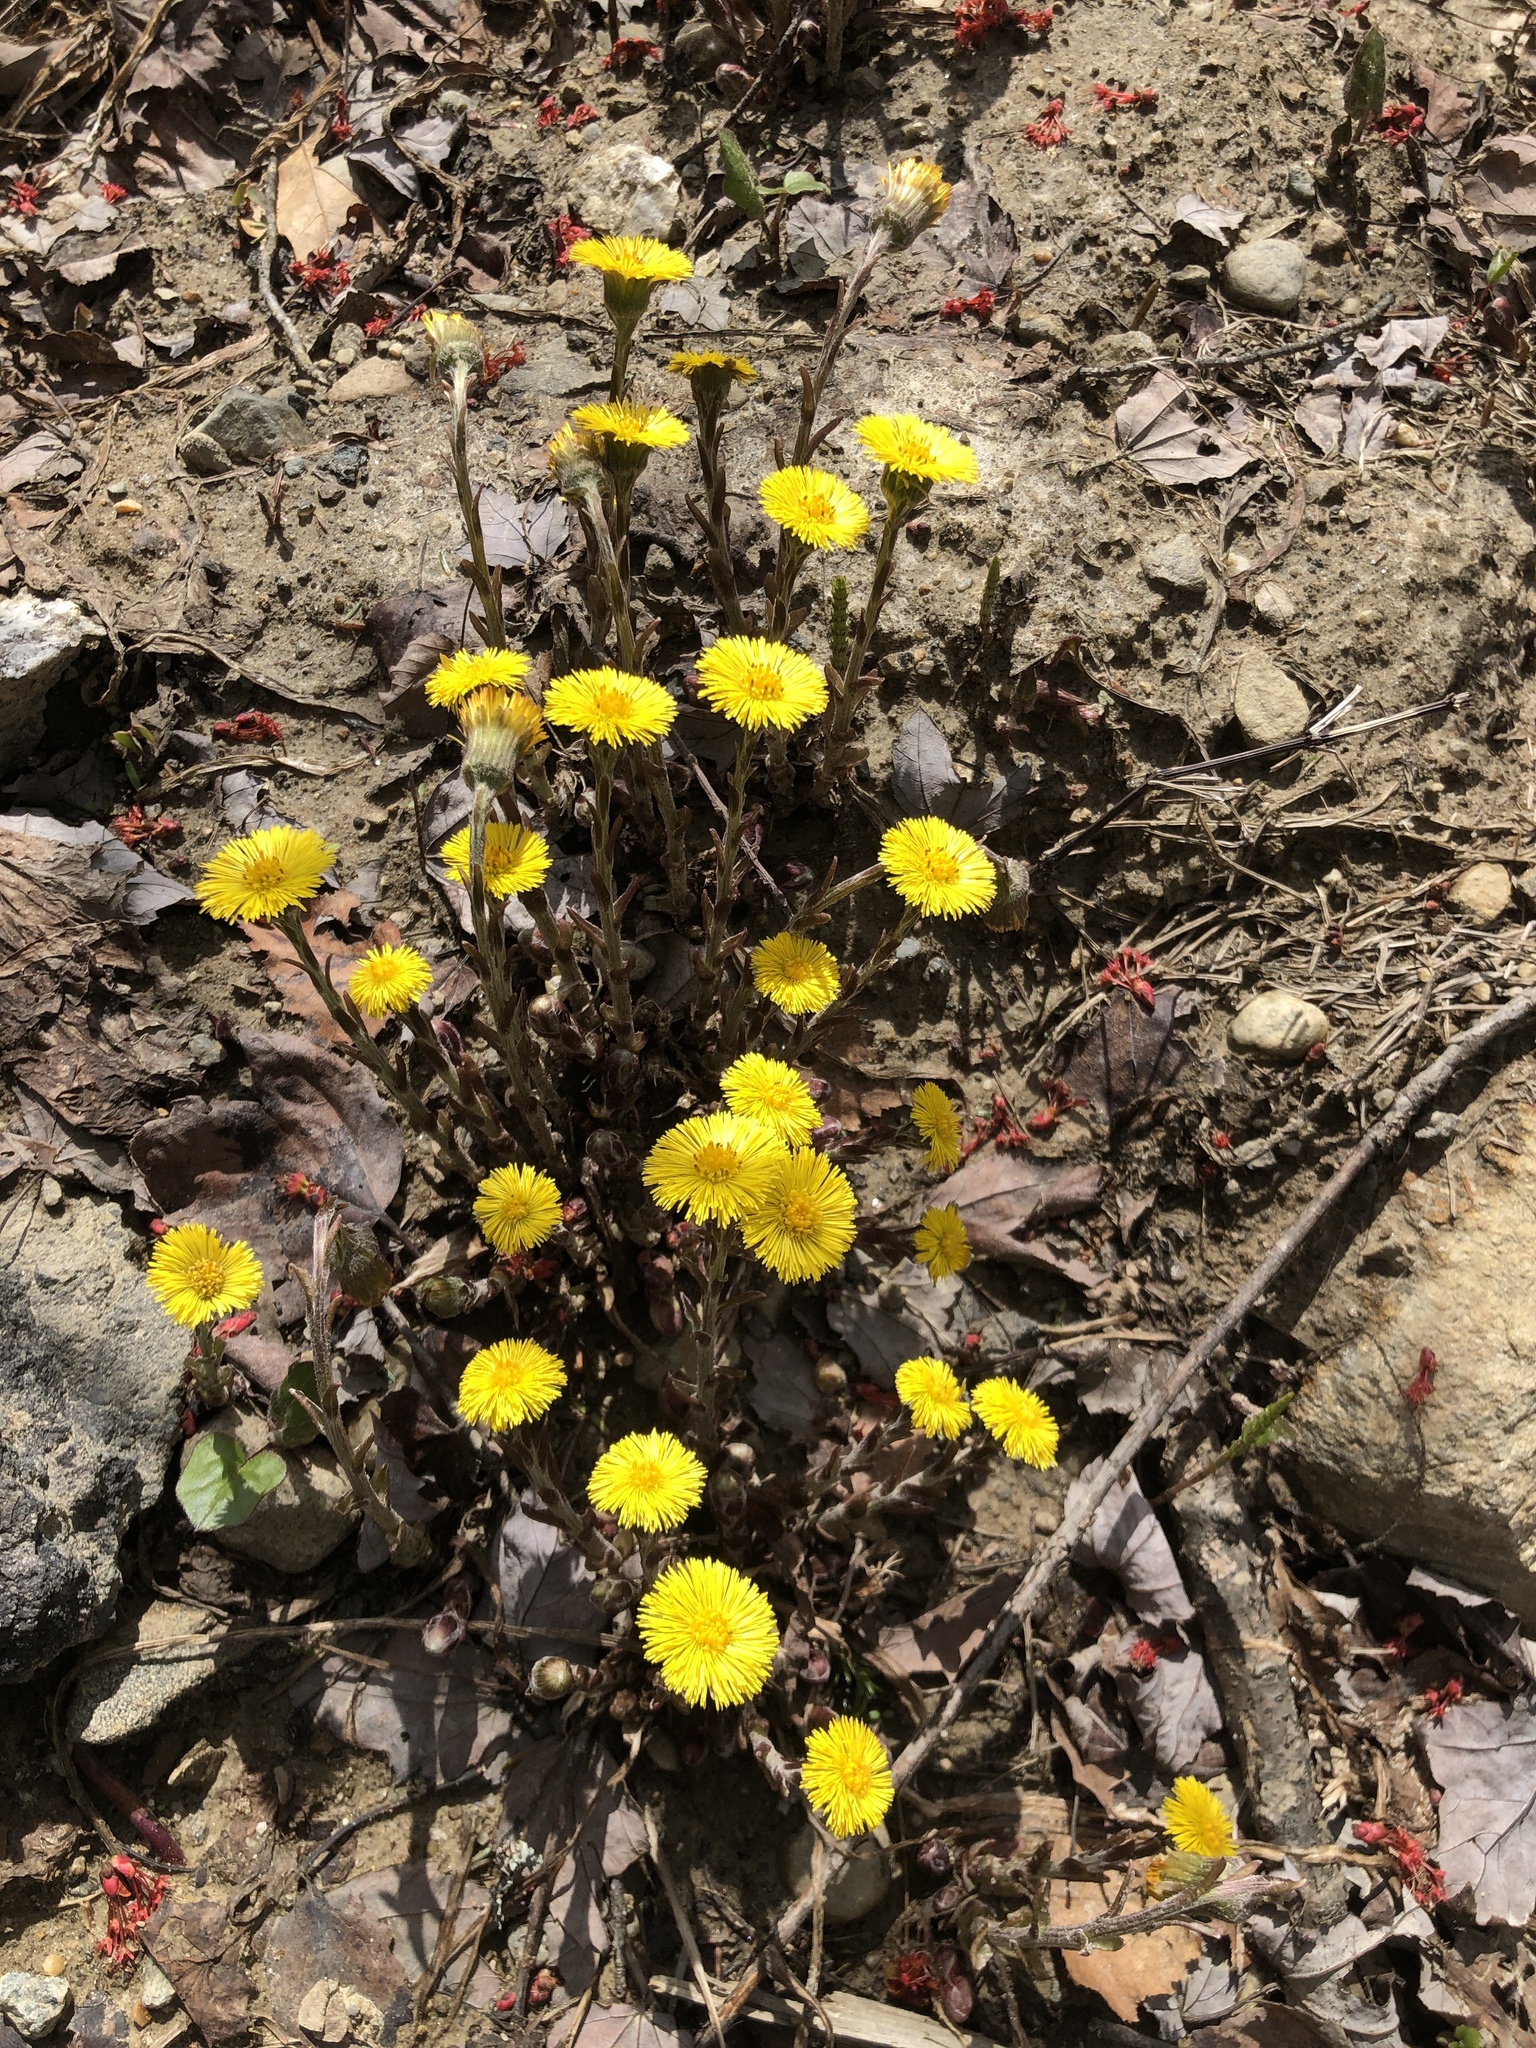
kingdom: Plantae
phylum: Tracheophyta
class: Magnoliopsida
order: Asterales
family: Asteraceae
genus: Tussilago
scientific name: Tussilago farfara
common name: Coltsfoot
